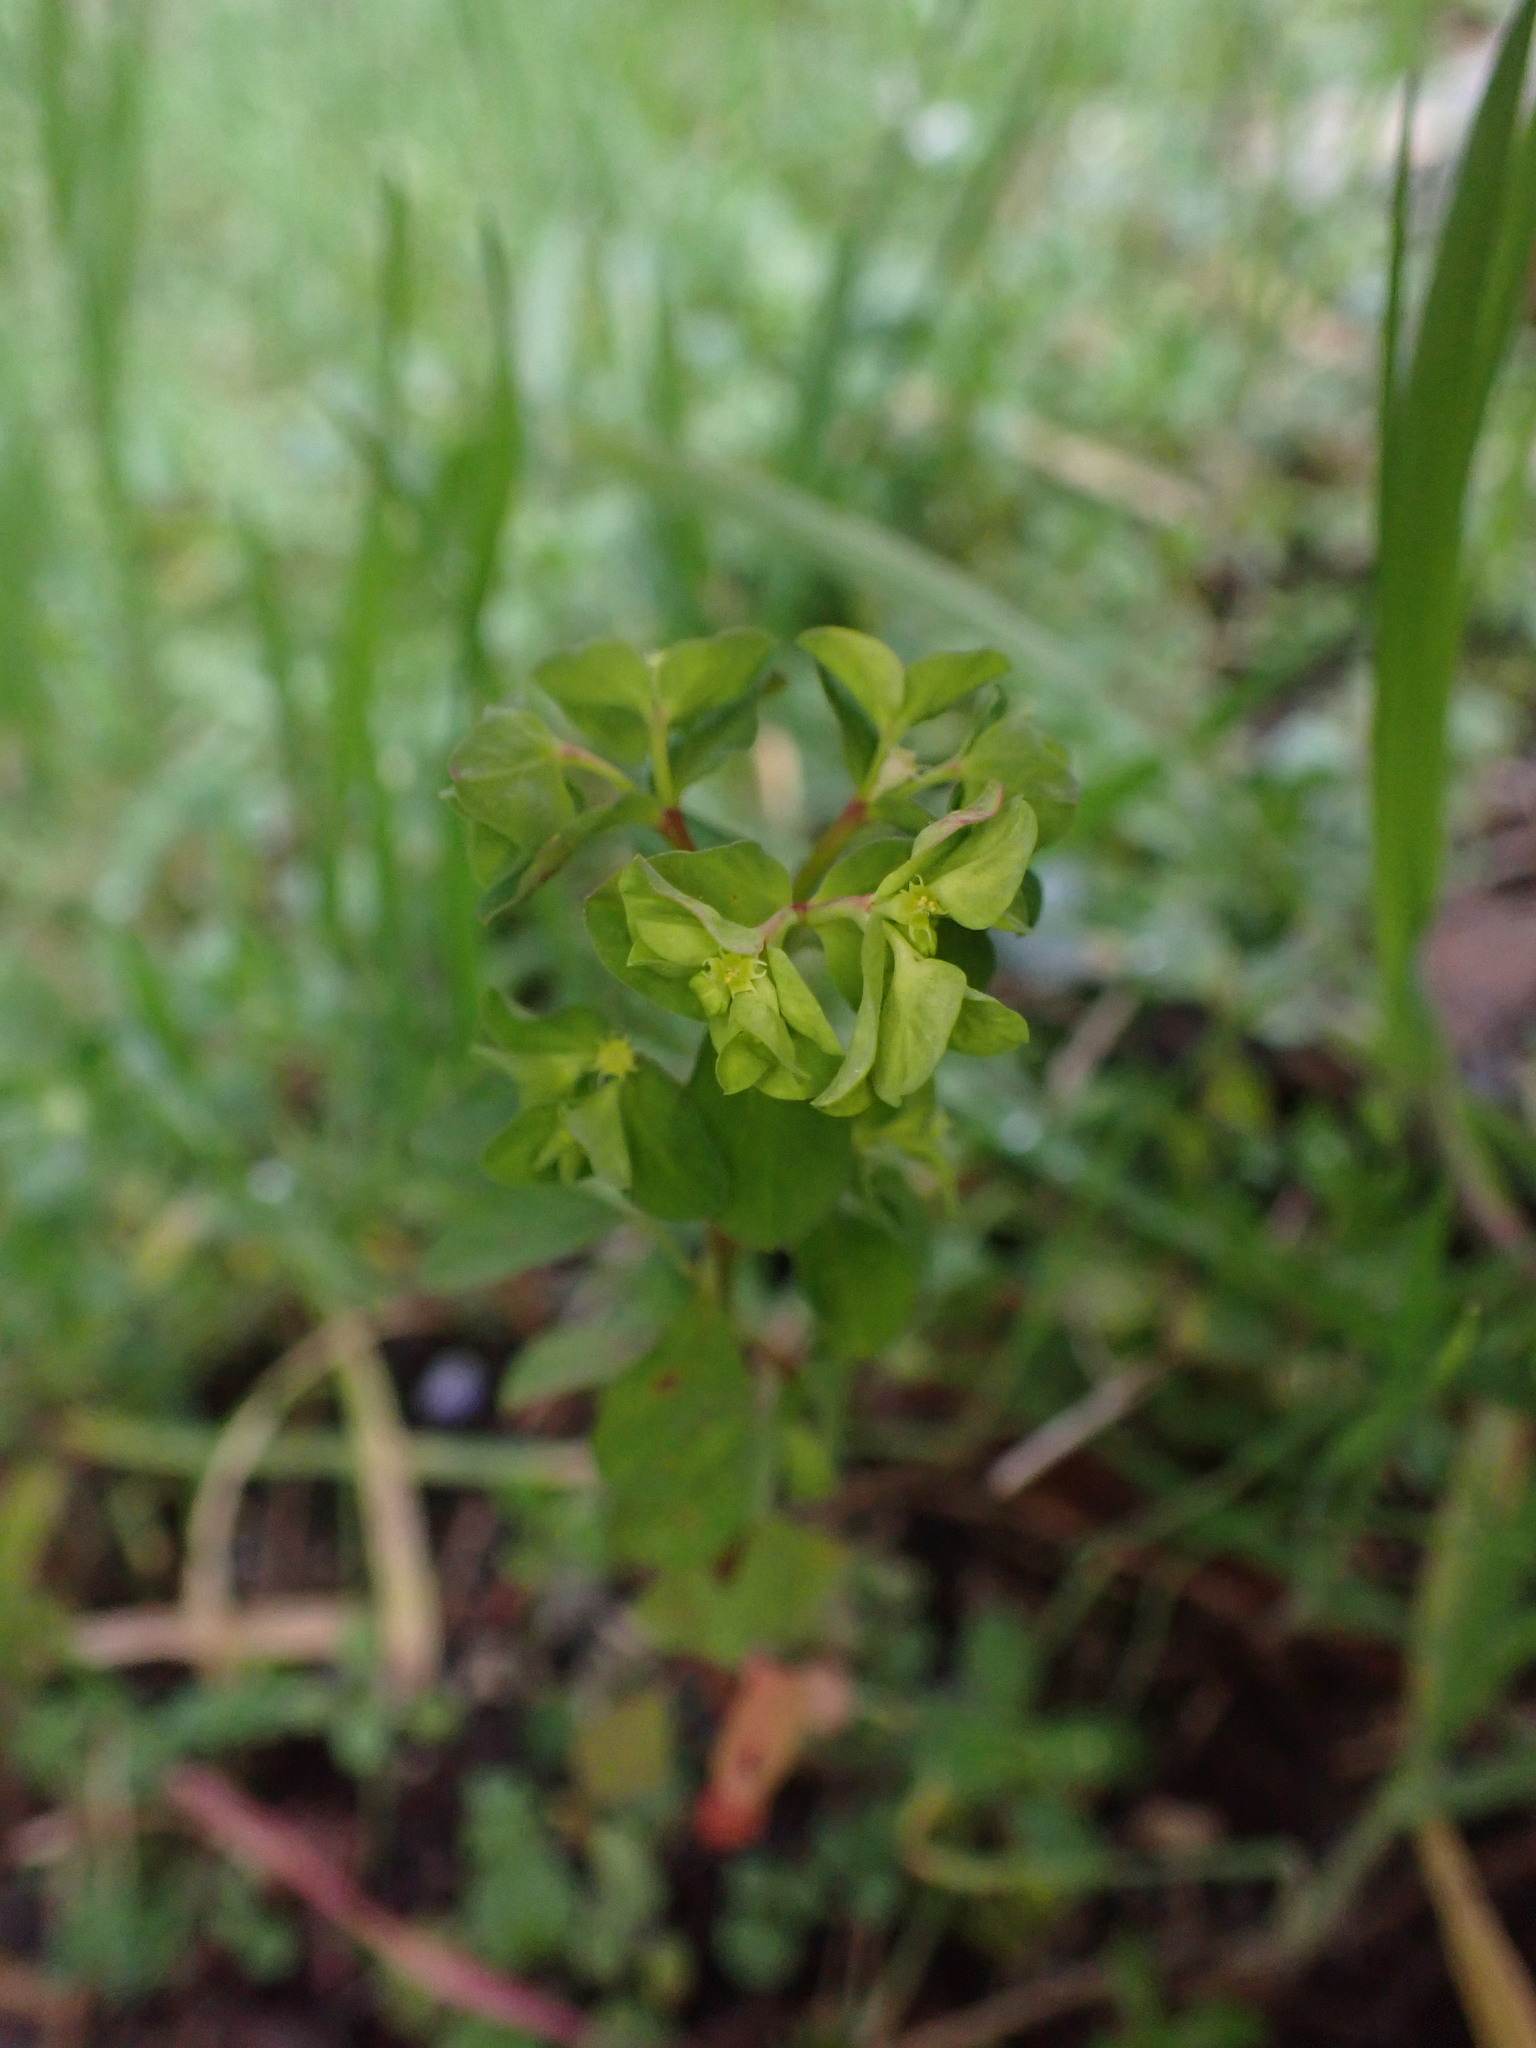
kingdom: Plantae
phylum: Tracheophyta
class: Magnoliopsida
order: Malpighiales
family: Euphorbiaceae
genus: Euphorbia
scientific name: Euphorbia peplus
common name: Petty spurge
